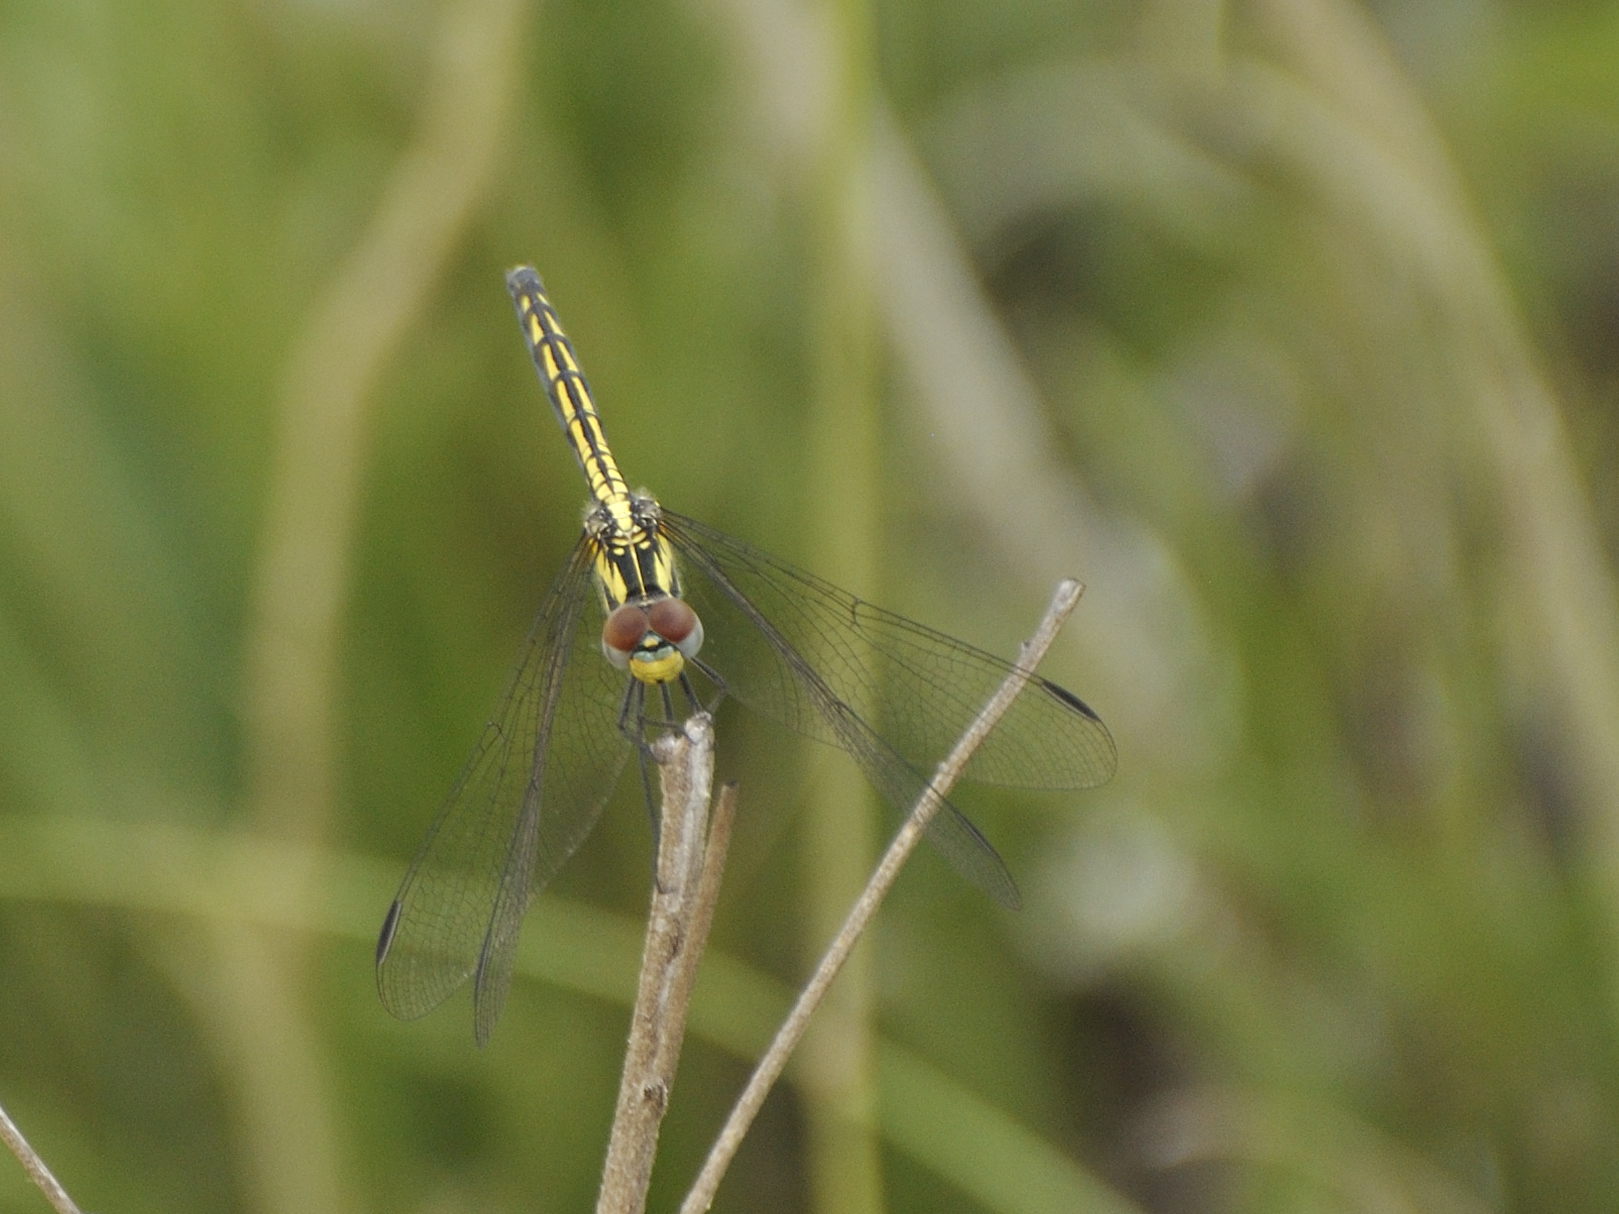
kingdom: Animalia
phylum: Arthropoda
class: Insecta
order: Odonata
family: Libellulidae
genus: Trithemis
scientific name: Trithemis stictica
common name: Jaunty dropwing
